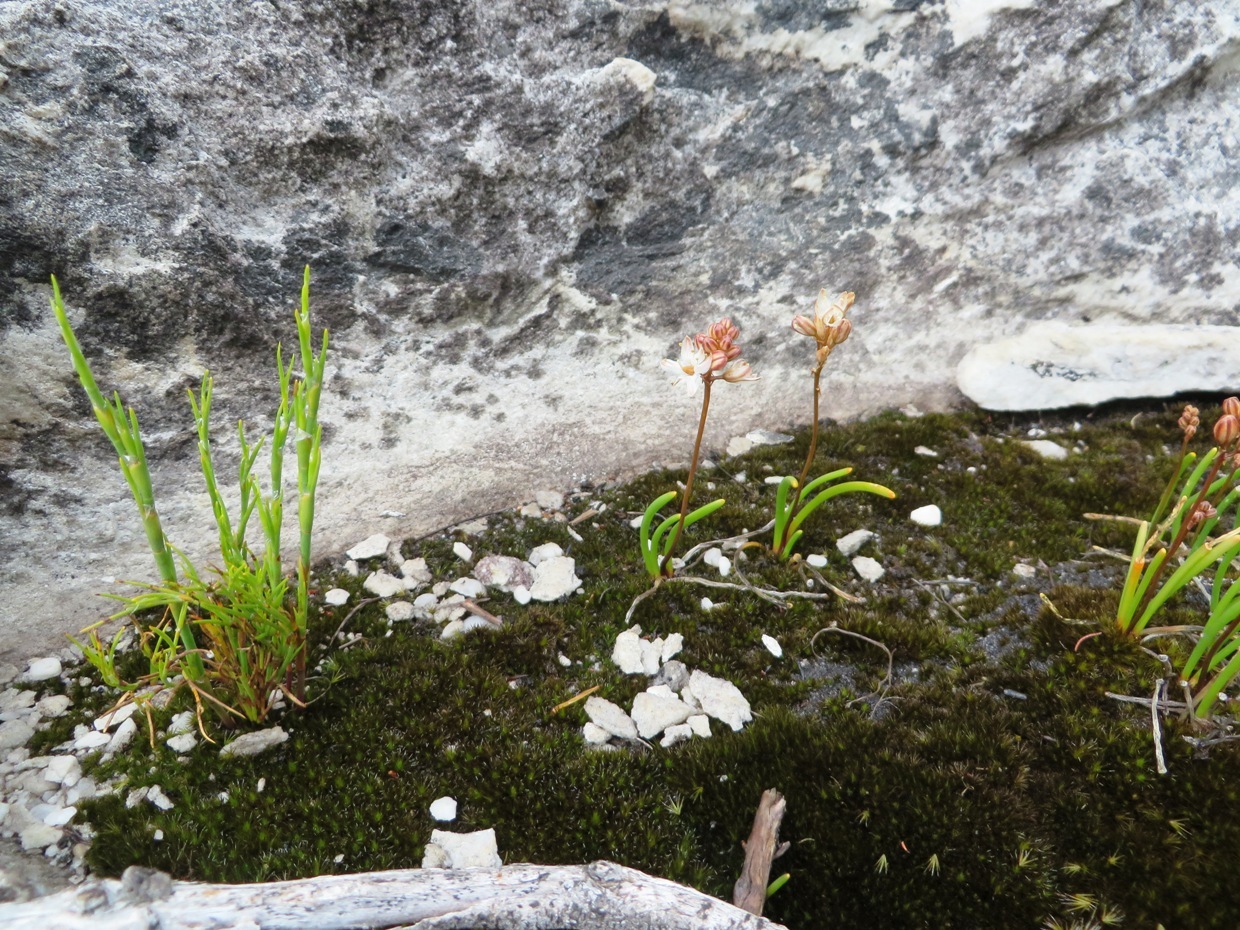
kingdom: Plantae
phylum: Tracheophyta
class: Liliopsida
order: Asparagales
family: Asparagaceae
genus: Austronea
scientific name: Austronea virens
